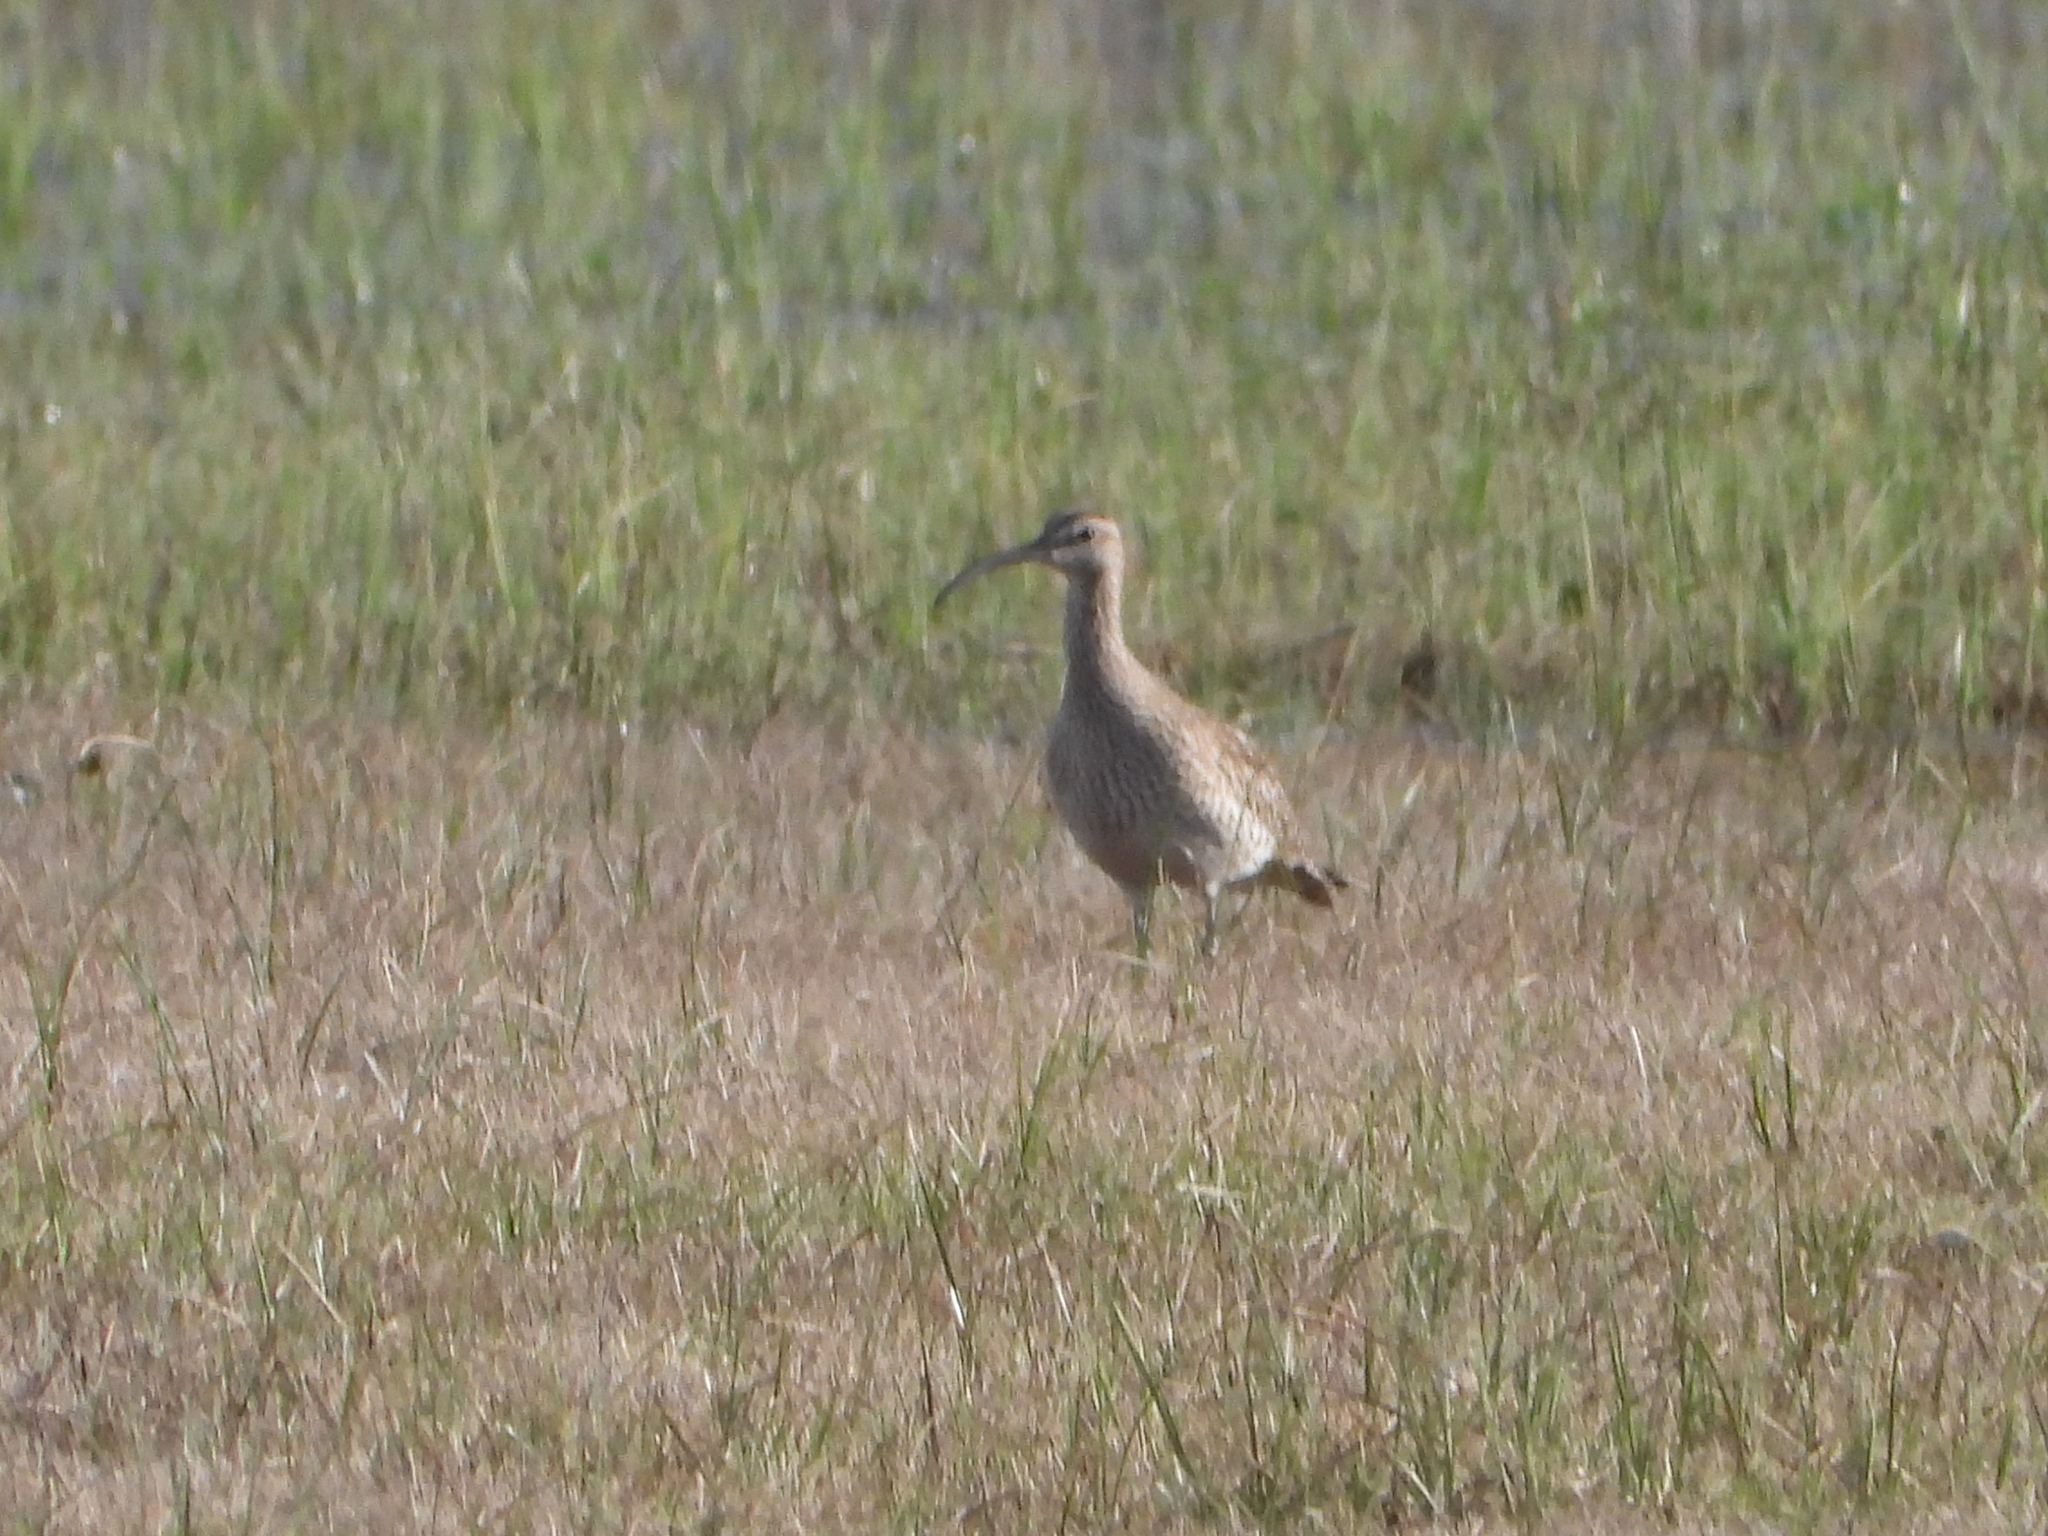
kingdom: Animalia
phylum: Chordata
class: Aves
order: Charadriiformes
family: Scolopacidae
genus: Numenius
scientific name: Numenius phaeopus
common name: Whimbrel
